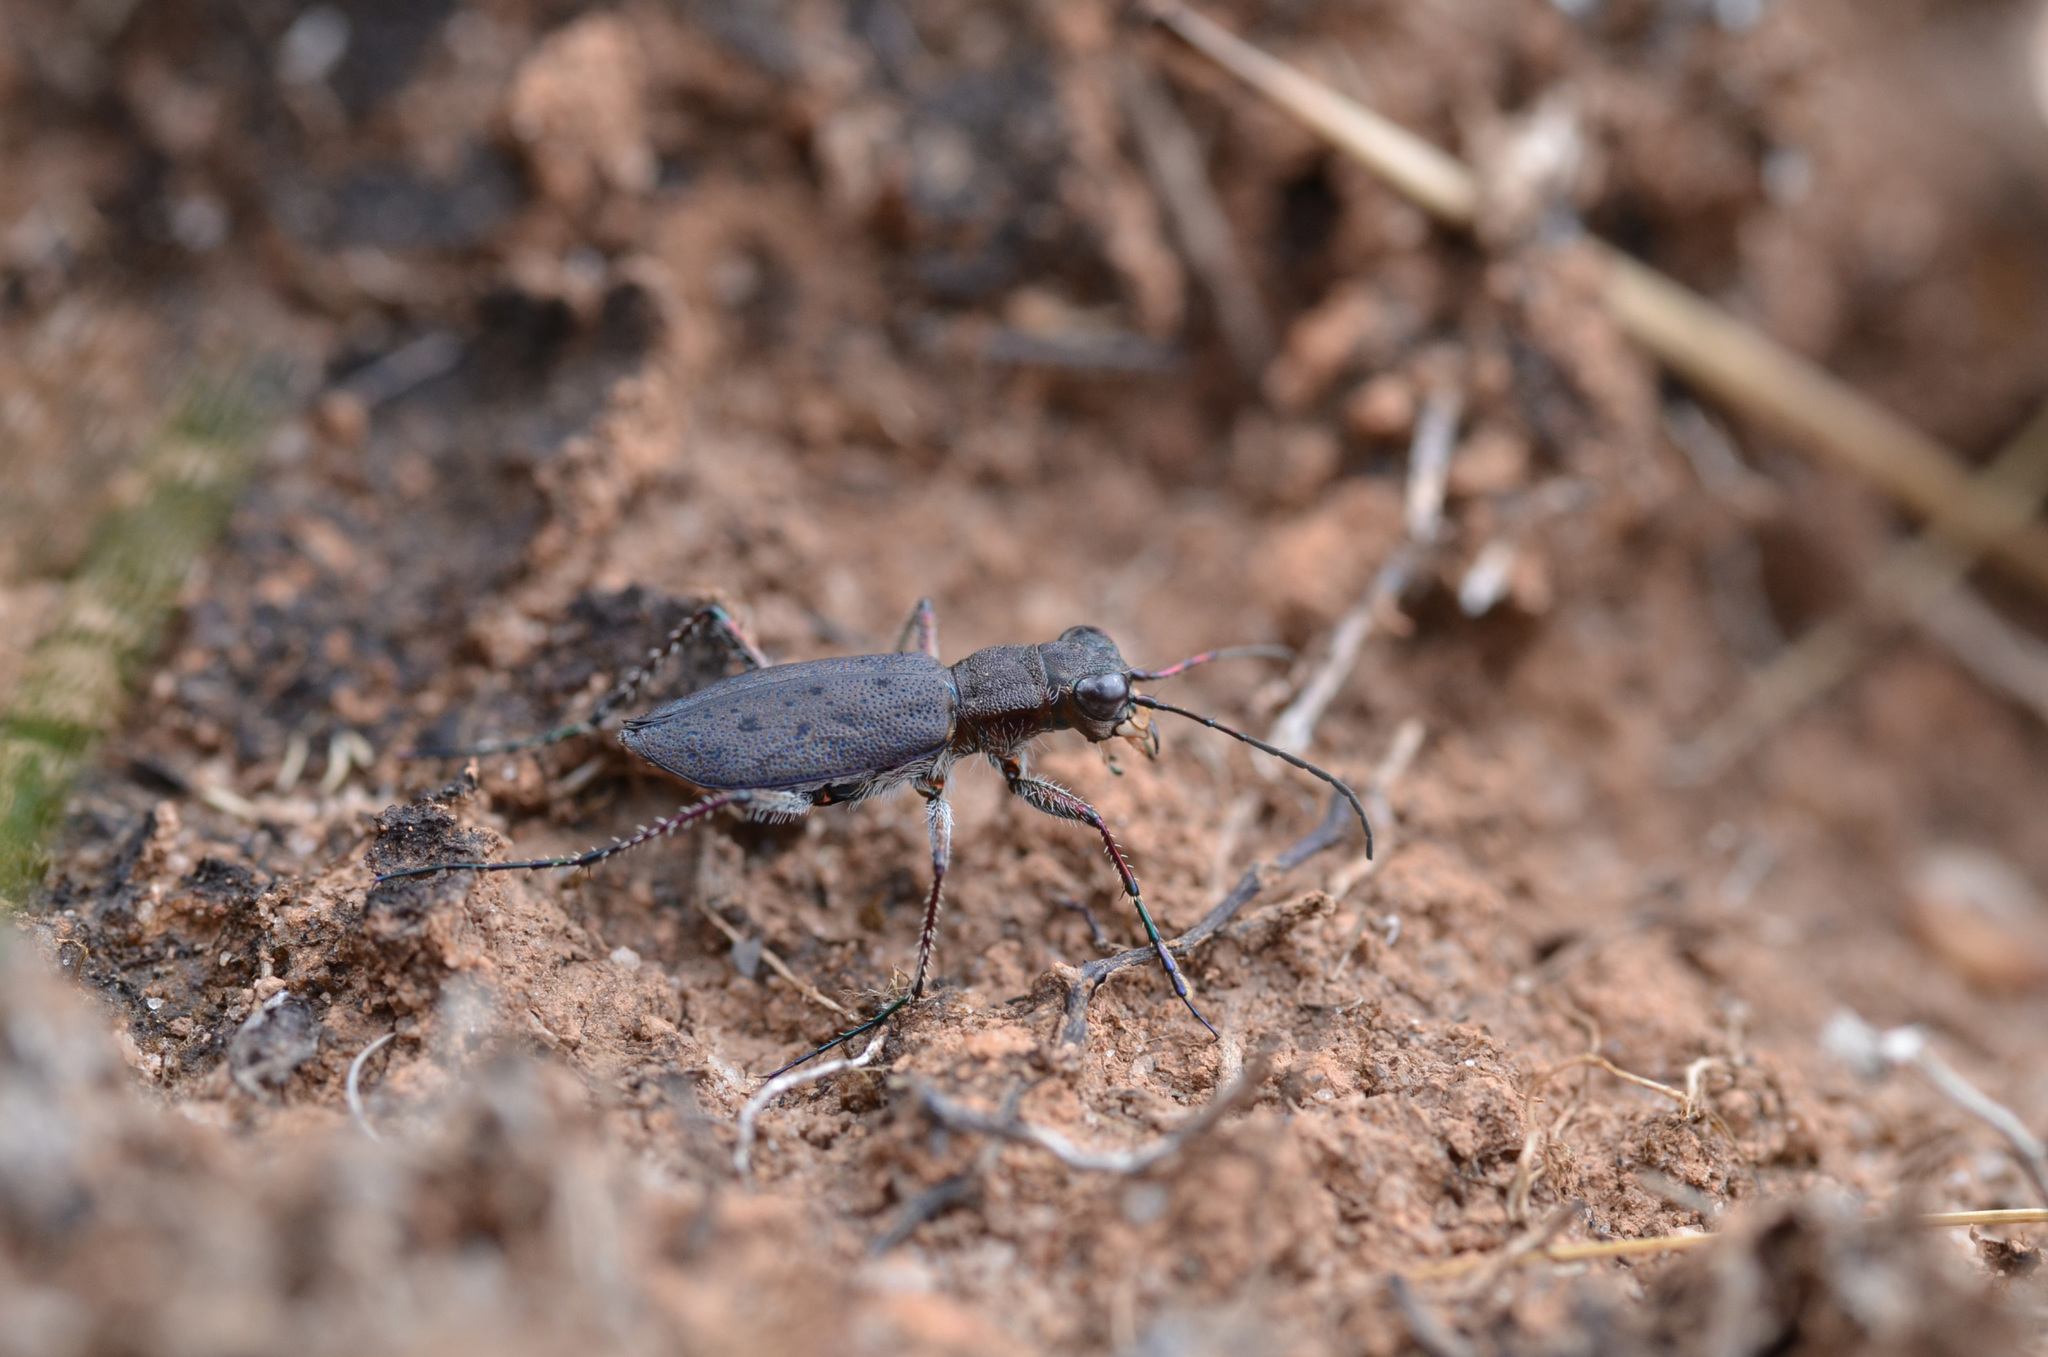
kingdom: Animalia
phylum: Arthropoda
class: Insecta
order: Coleoptera
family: Carabidae
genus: Lophyra
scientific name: Lophyra saraliensis
